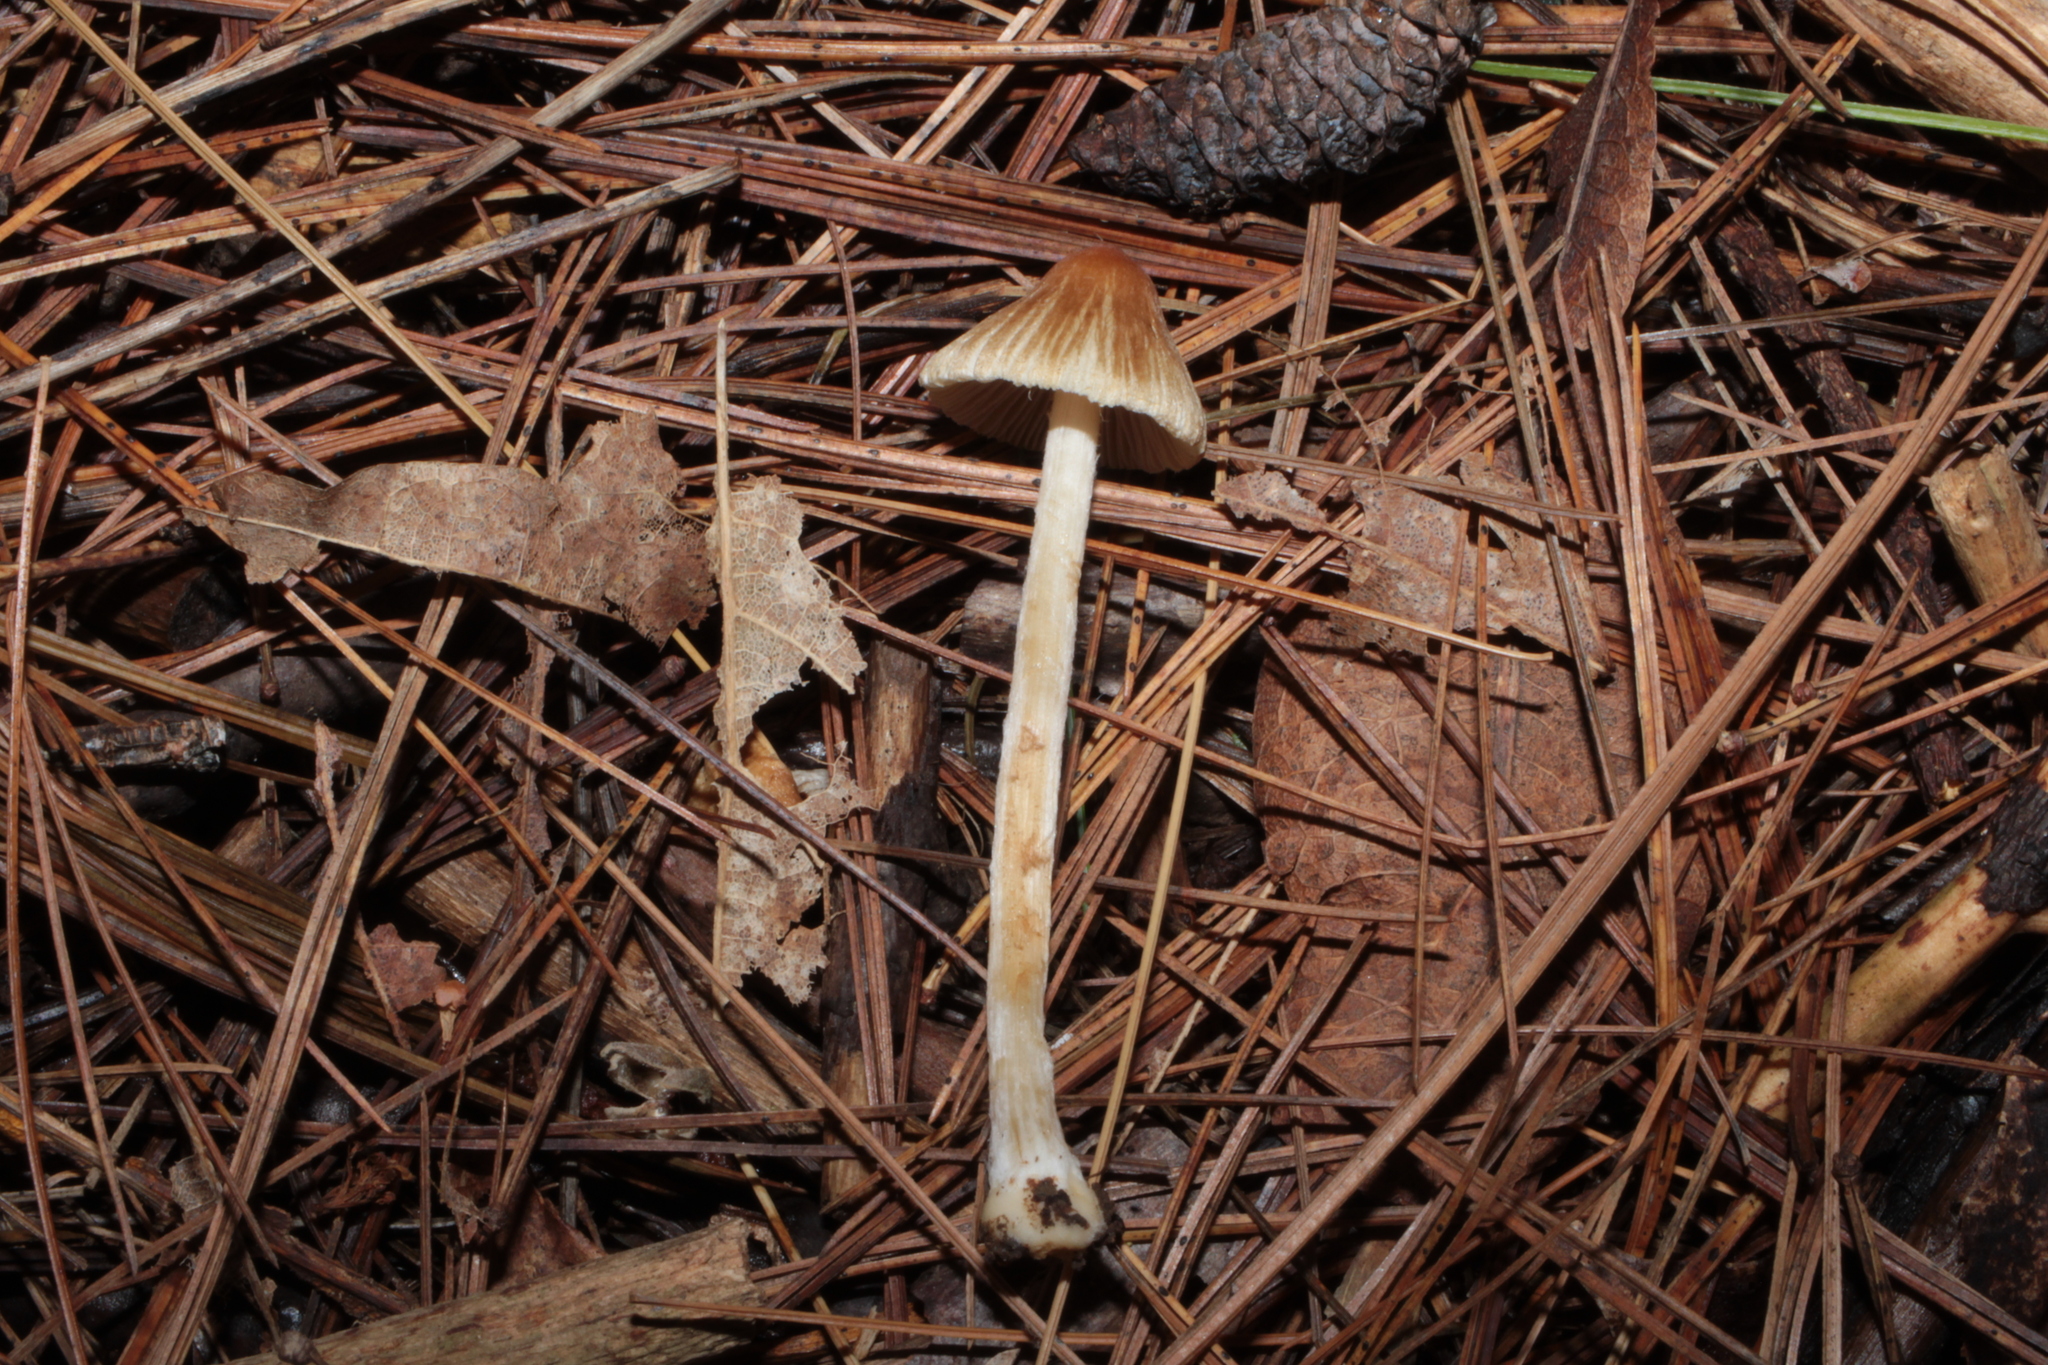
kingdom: Fungi
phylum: Basidiomycota
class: Agaricomycetes
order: Agaricales
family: Inocybaceae
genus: Pseudosperma
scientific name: Pseudosperma friabile
